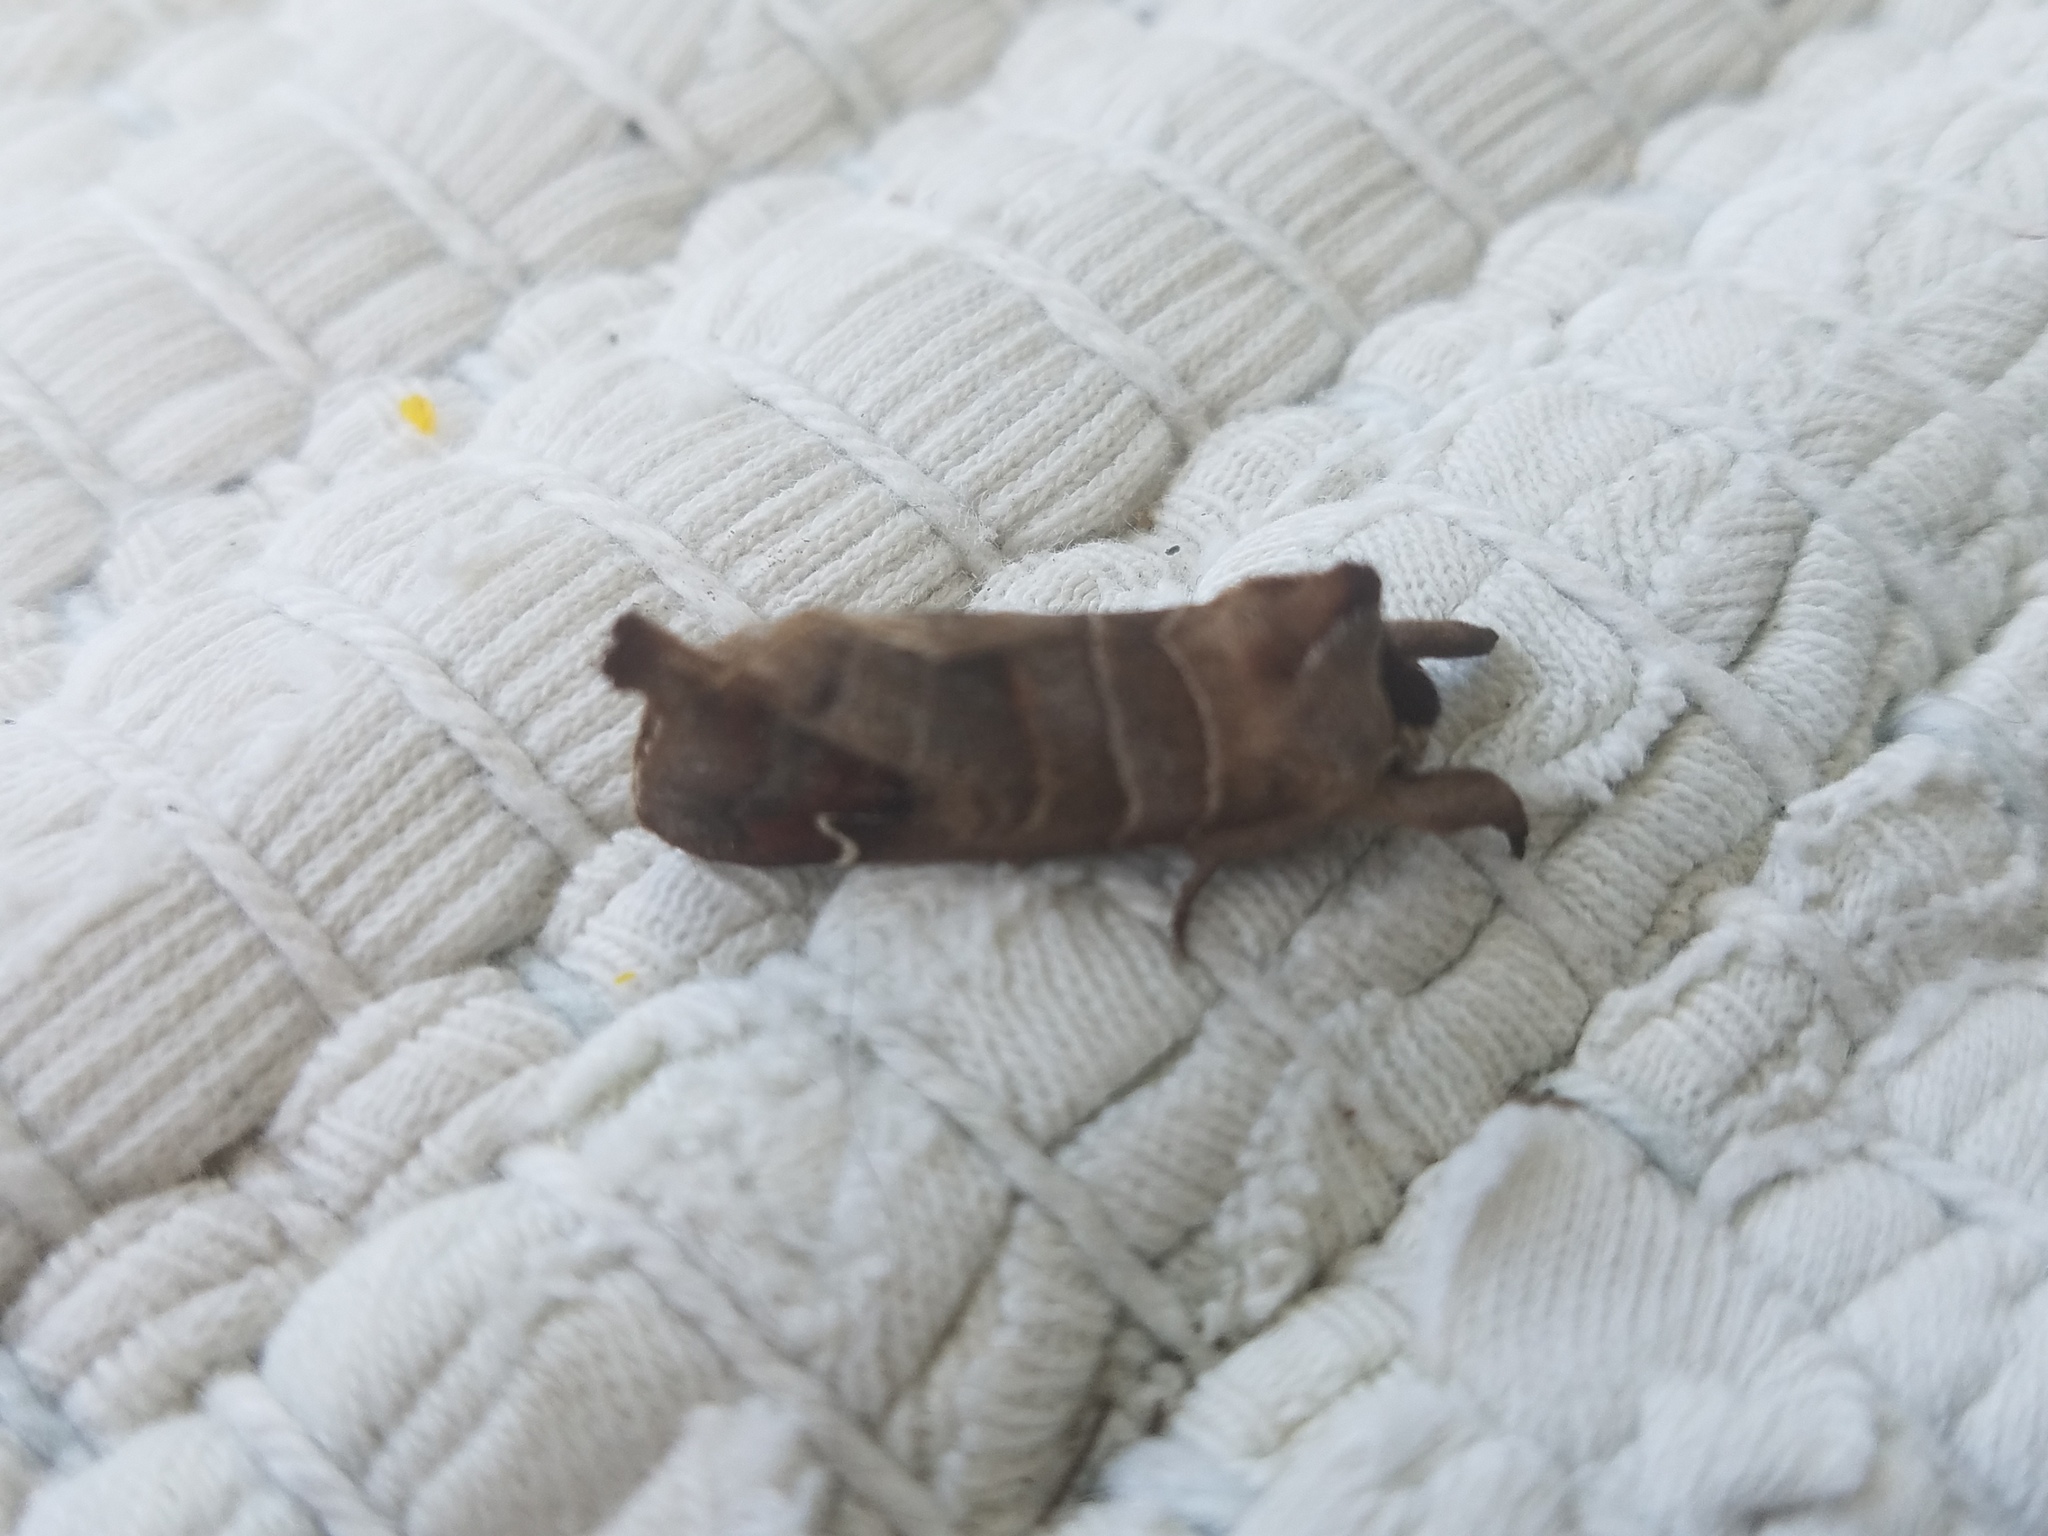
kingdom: Animalia
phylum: Arthropoda
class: Insecta
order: Lepidoptera
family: Notodontidae
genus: Clostera
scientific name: Clostera albosigma
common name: Sigmoid prominent
